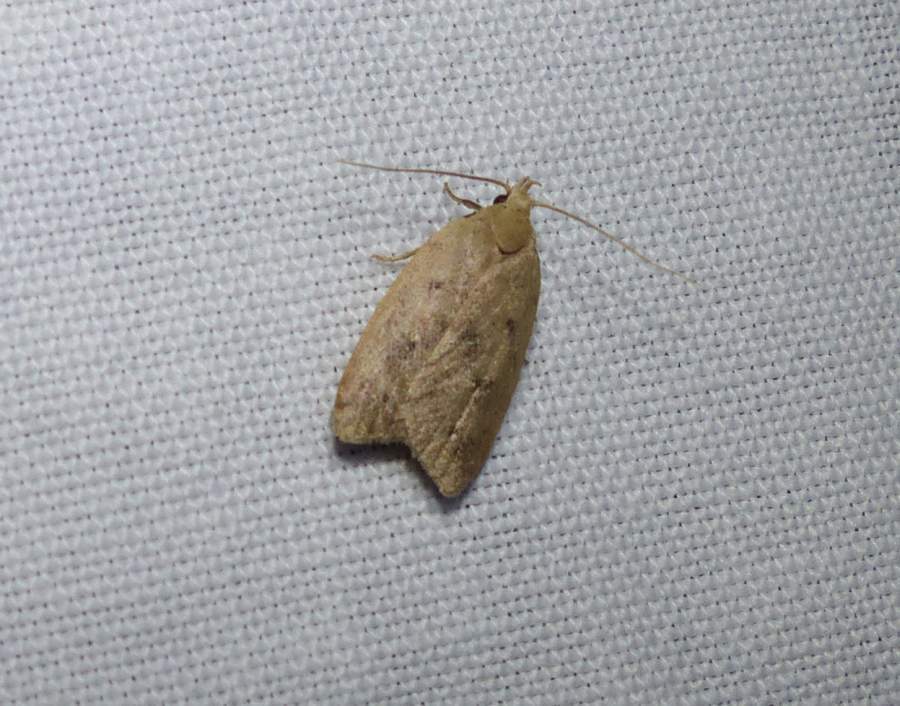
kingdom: Animalia
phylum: Arthropoda
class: Insecta
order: Lepidoptera
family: Peleopodidae
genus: Machimia
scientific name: Machimia tentoriferella
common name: Gold-striped leaftier moth
